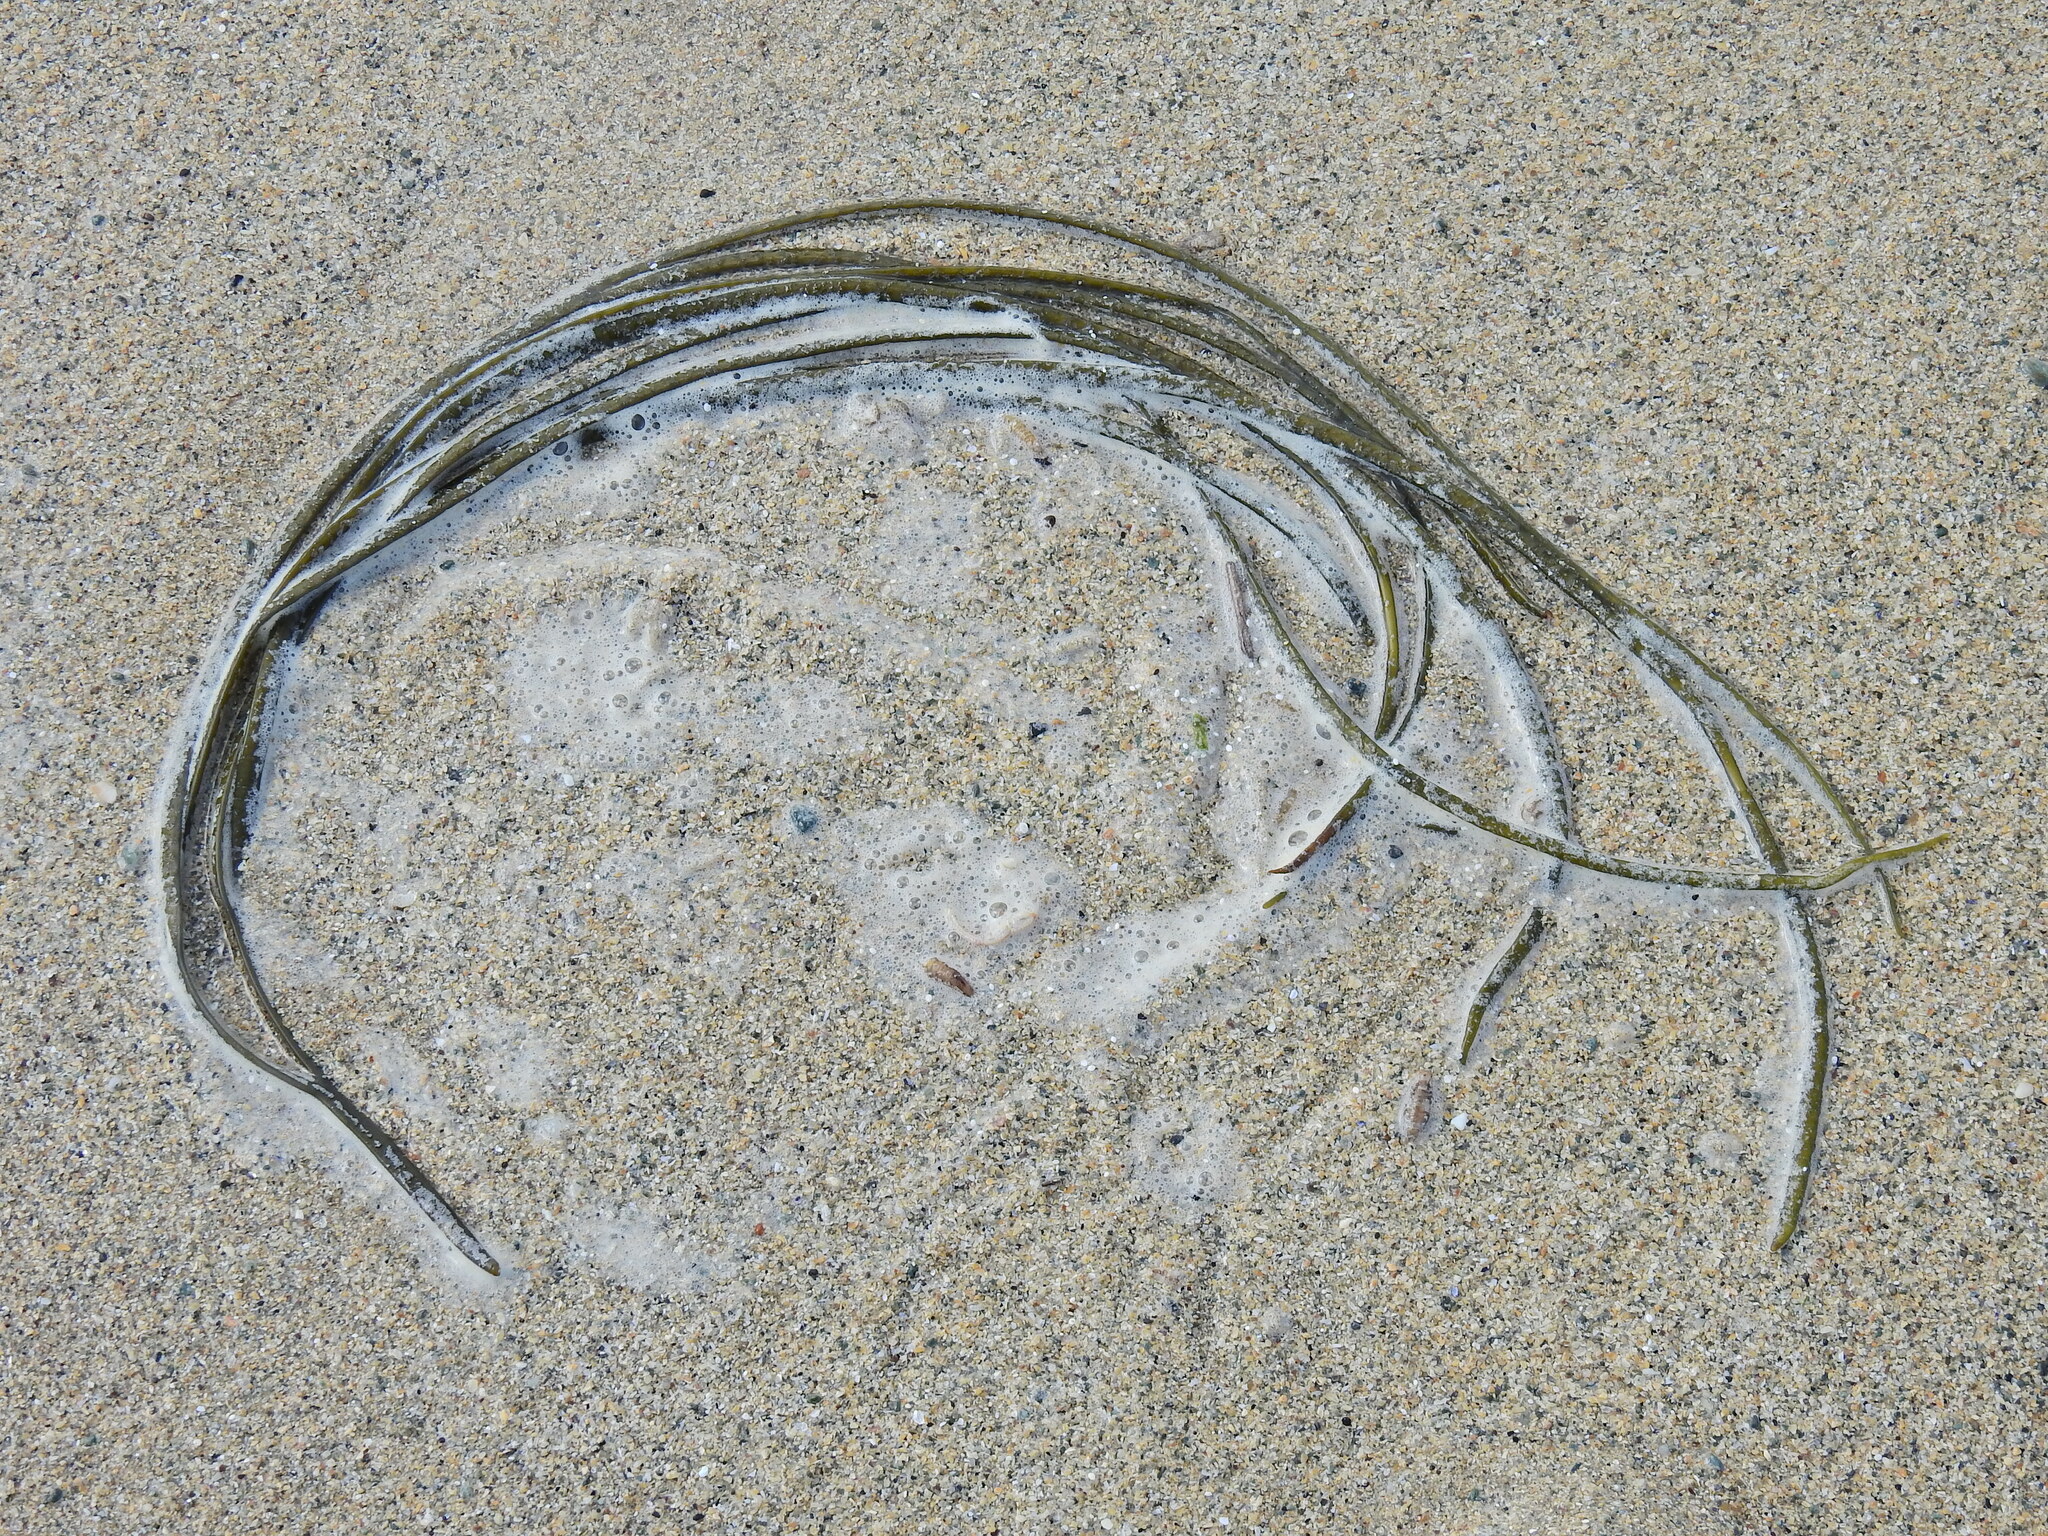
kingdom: Chromista
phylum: Ochrophyta
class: Phaeophyceae
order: Fucales
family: Himanthaliaceae
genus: Himanthalia
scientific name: Himanthalia elongata
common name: Sea-thong
